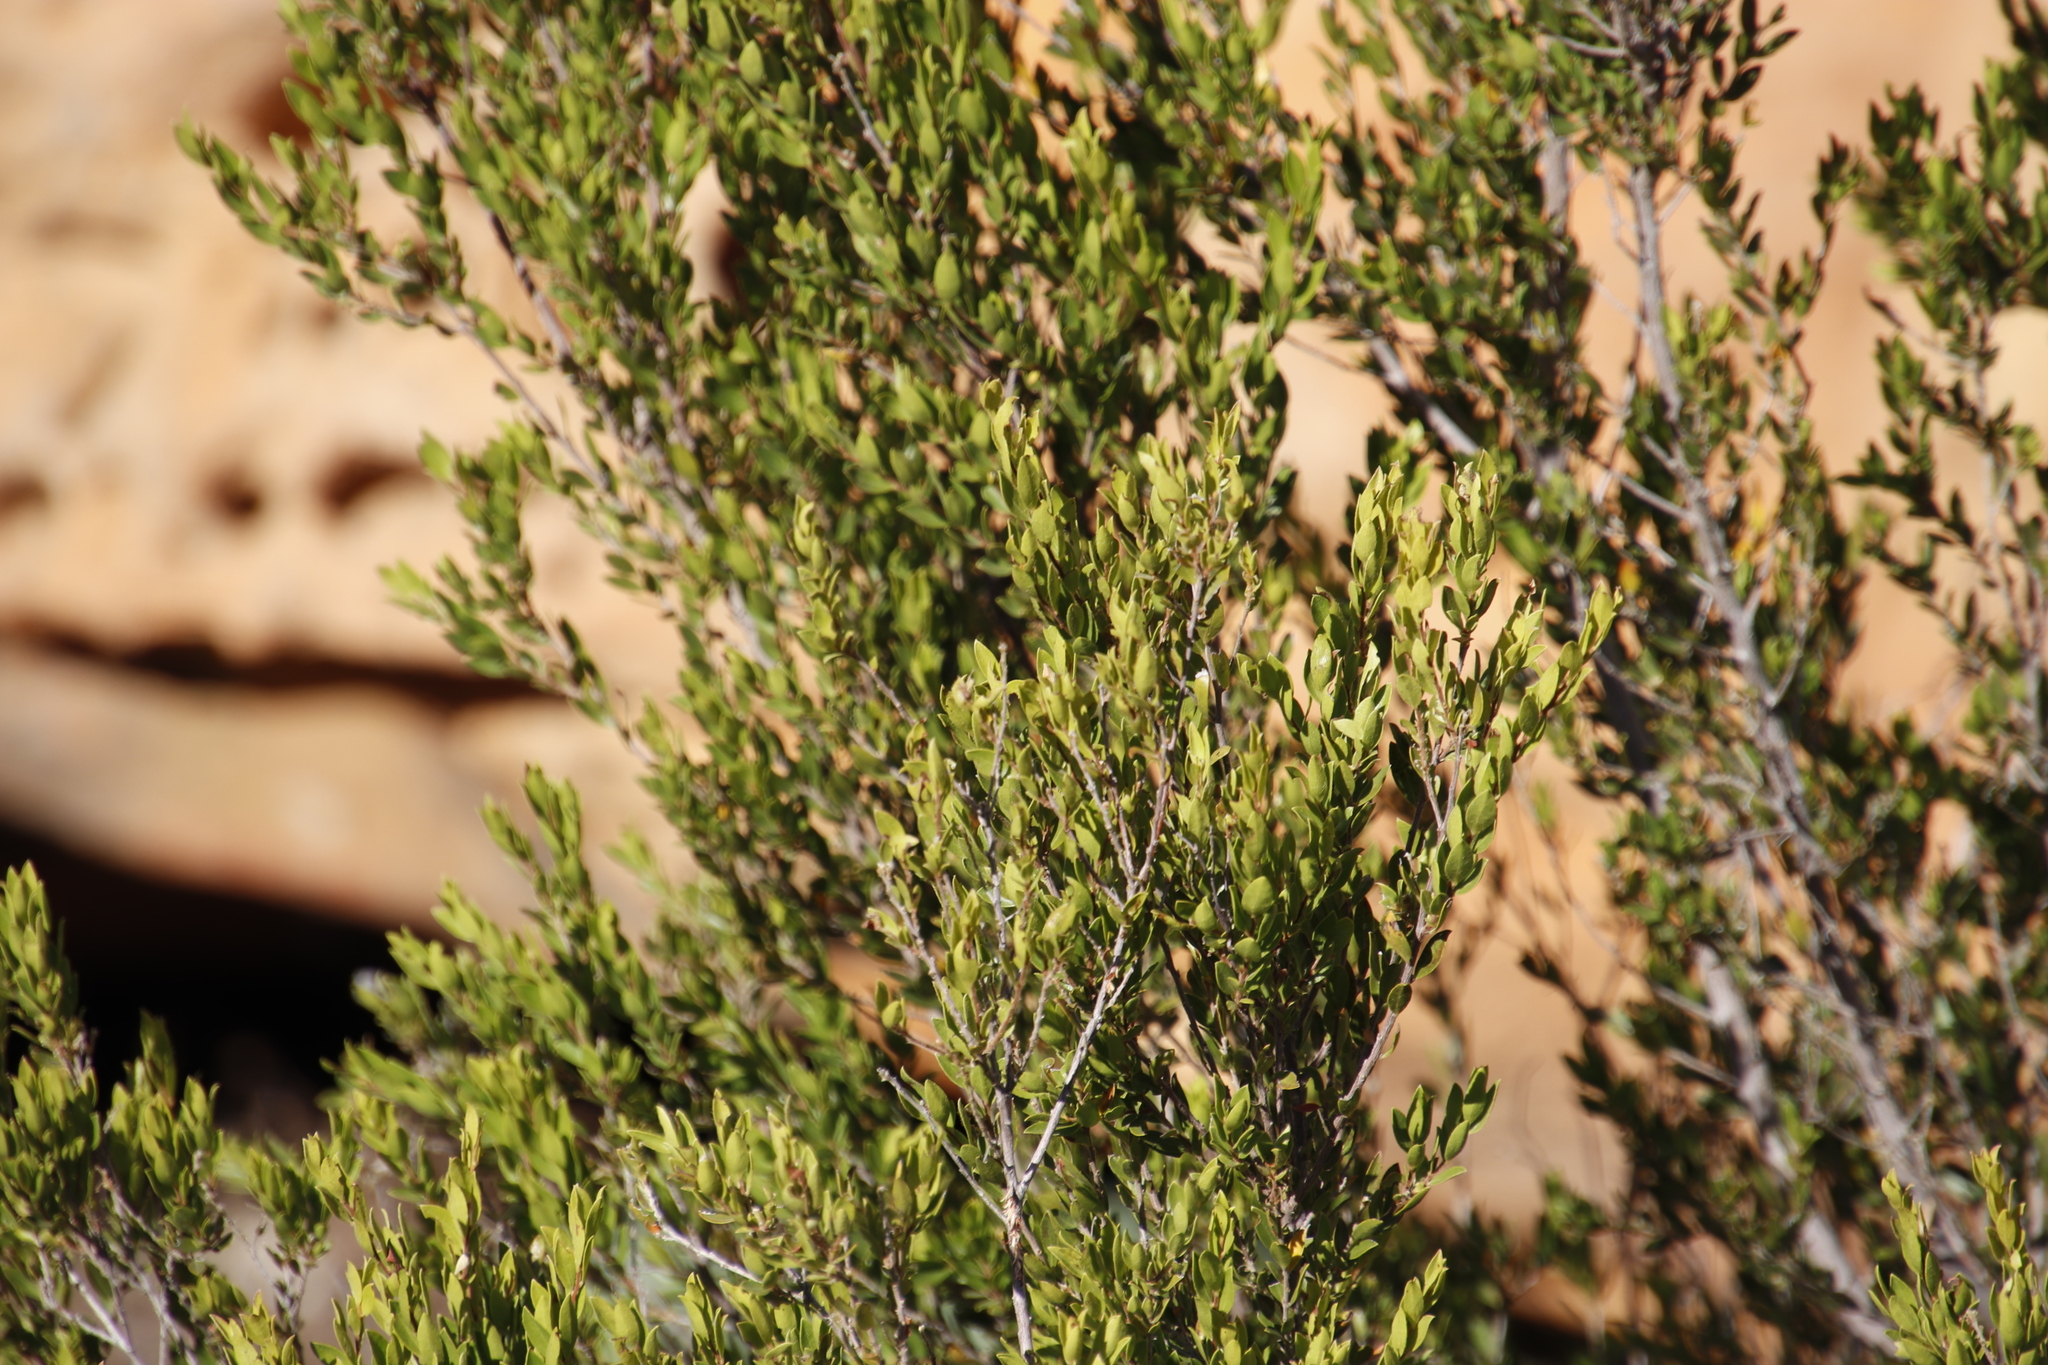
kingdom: Plantae
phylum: Tracheophyta
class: Magnoliopsida
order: Ericales
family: Ebenaceae
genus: Diospyros
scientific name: Diospyros glabra
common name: Fynbos star apple
